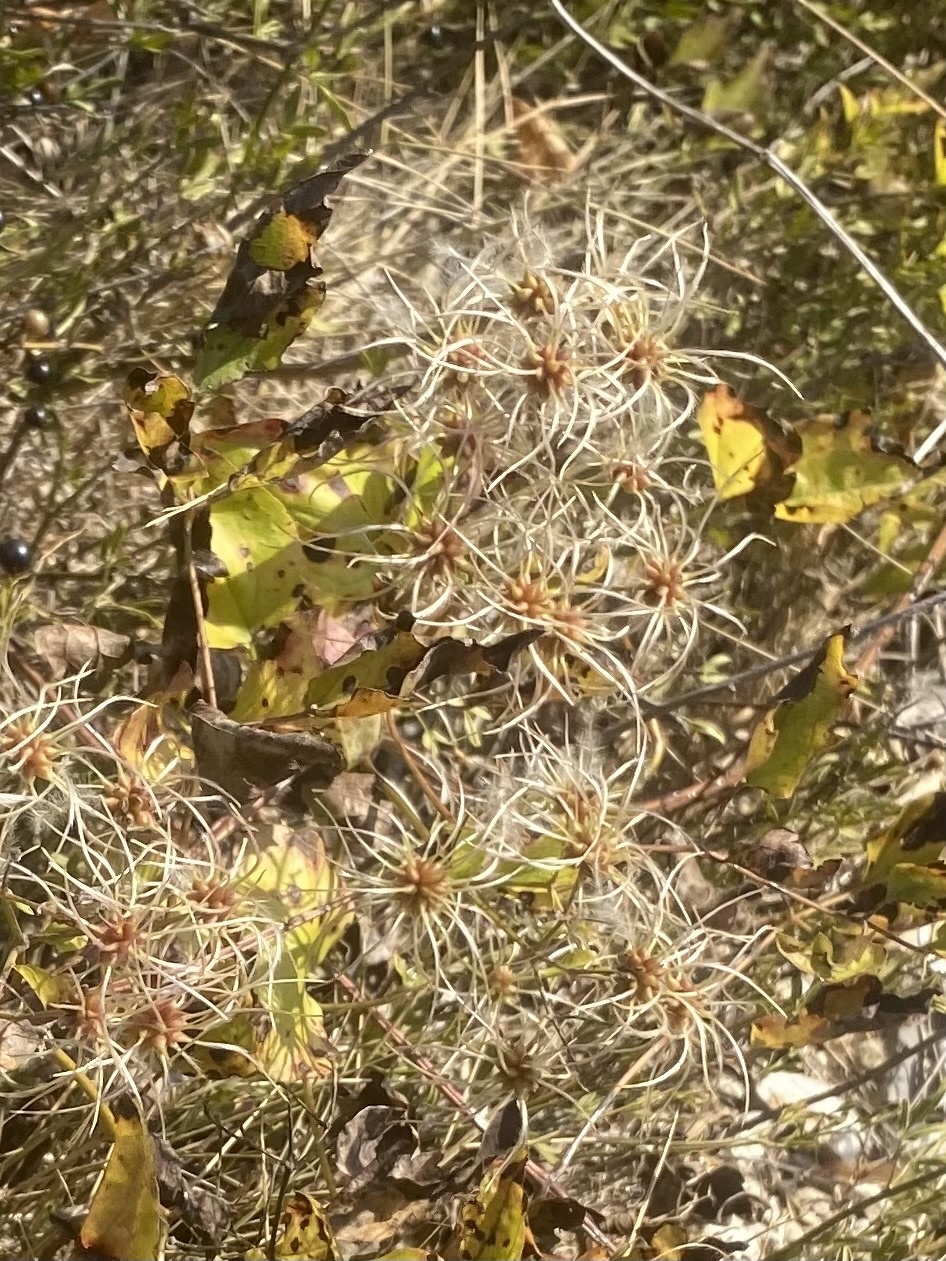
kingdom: Plantae
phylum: Tracheophyta
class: Magnoliopsida
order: Ranunculales
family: Ranunculaceae
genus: Clematis
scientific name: Clematis vitalba
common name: Evergreen clematis
